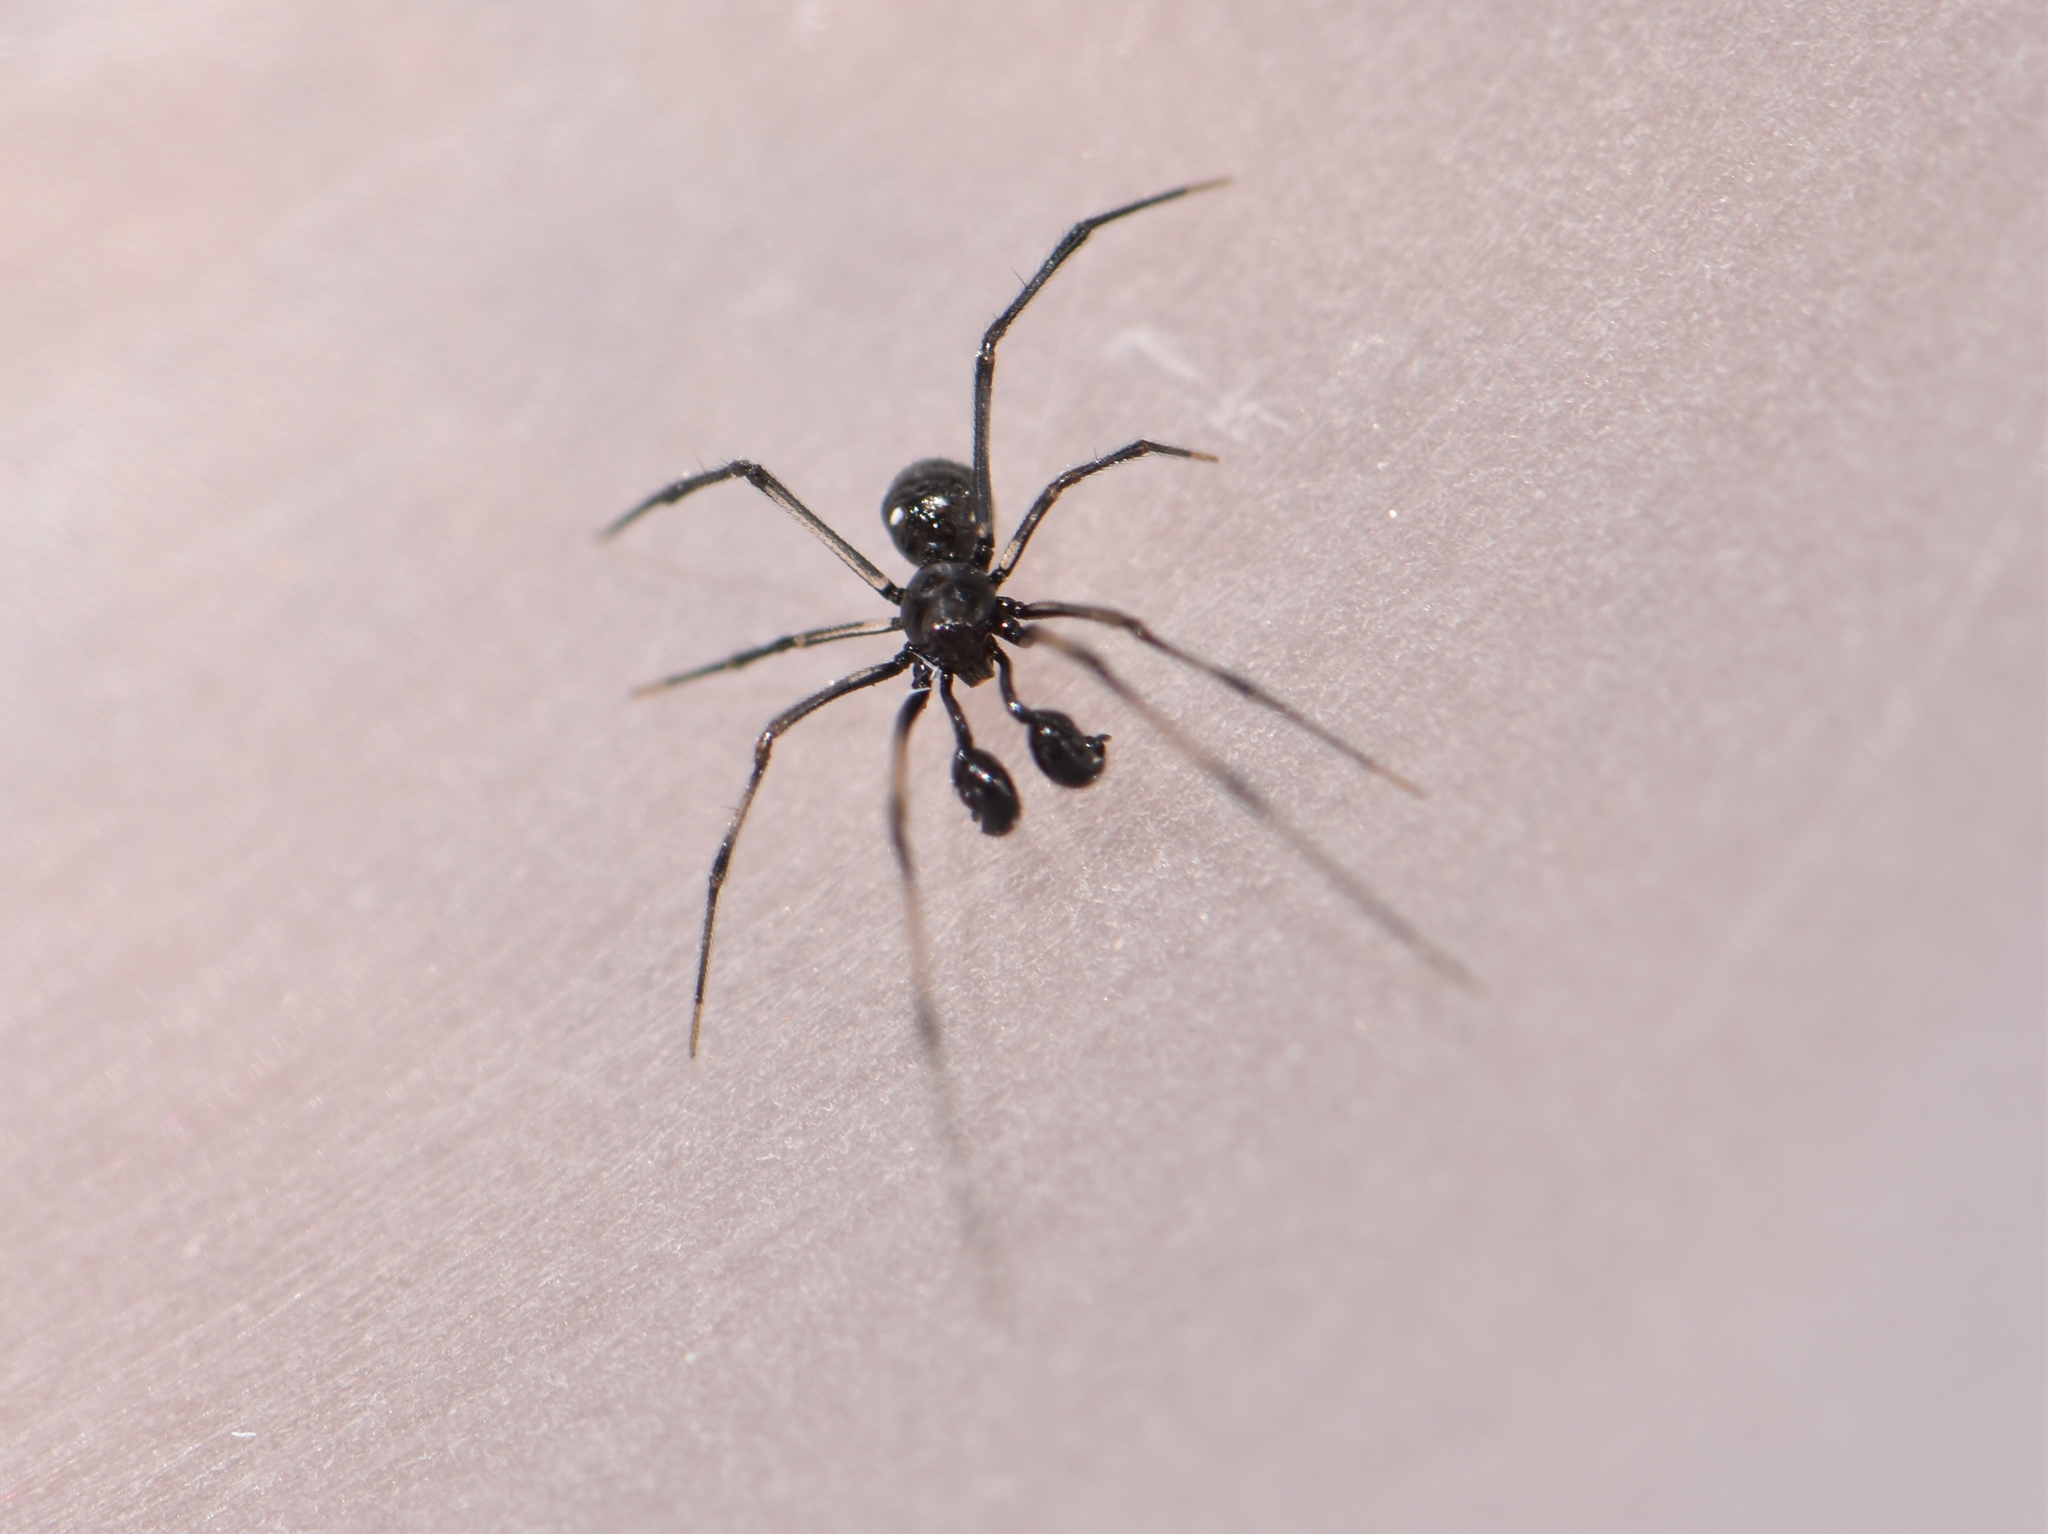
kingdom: Animalia
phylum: Arthropoda
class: Arachnida
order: Araneae
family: Theridiidae
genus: Neottiura
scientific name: Neottiura curvimana
